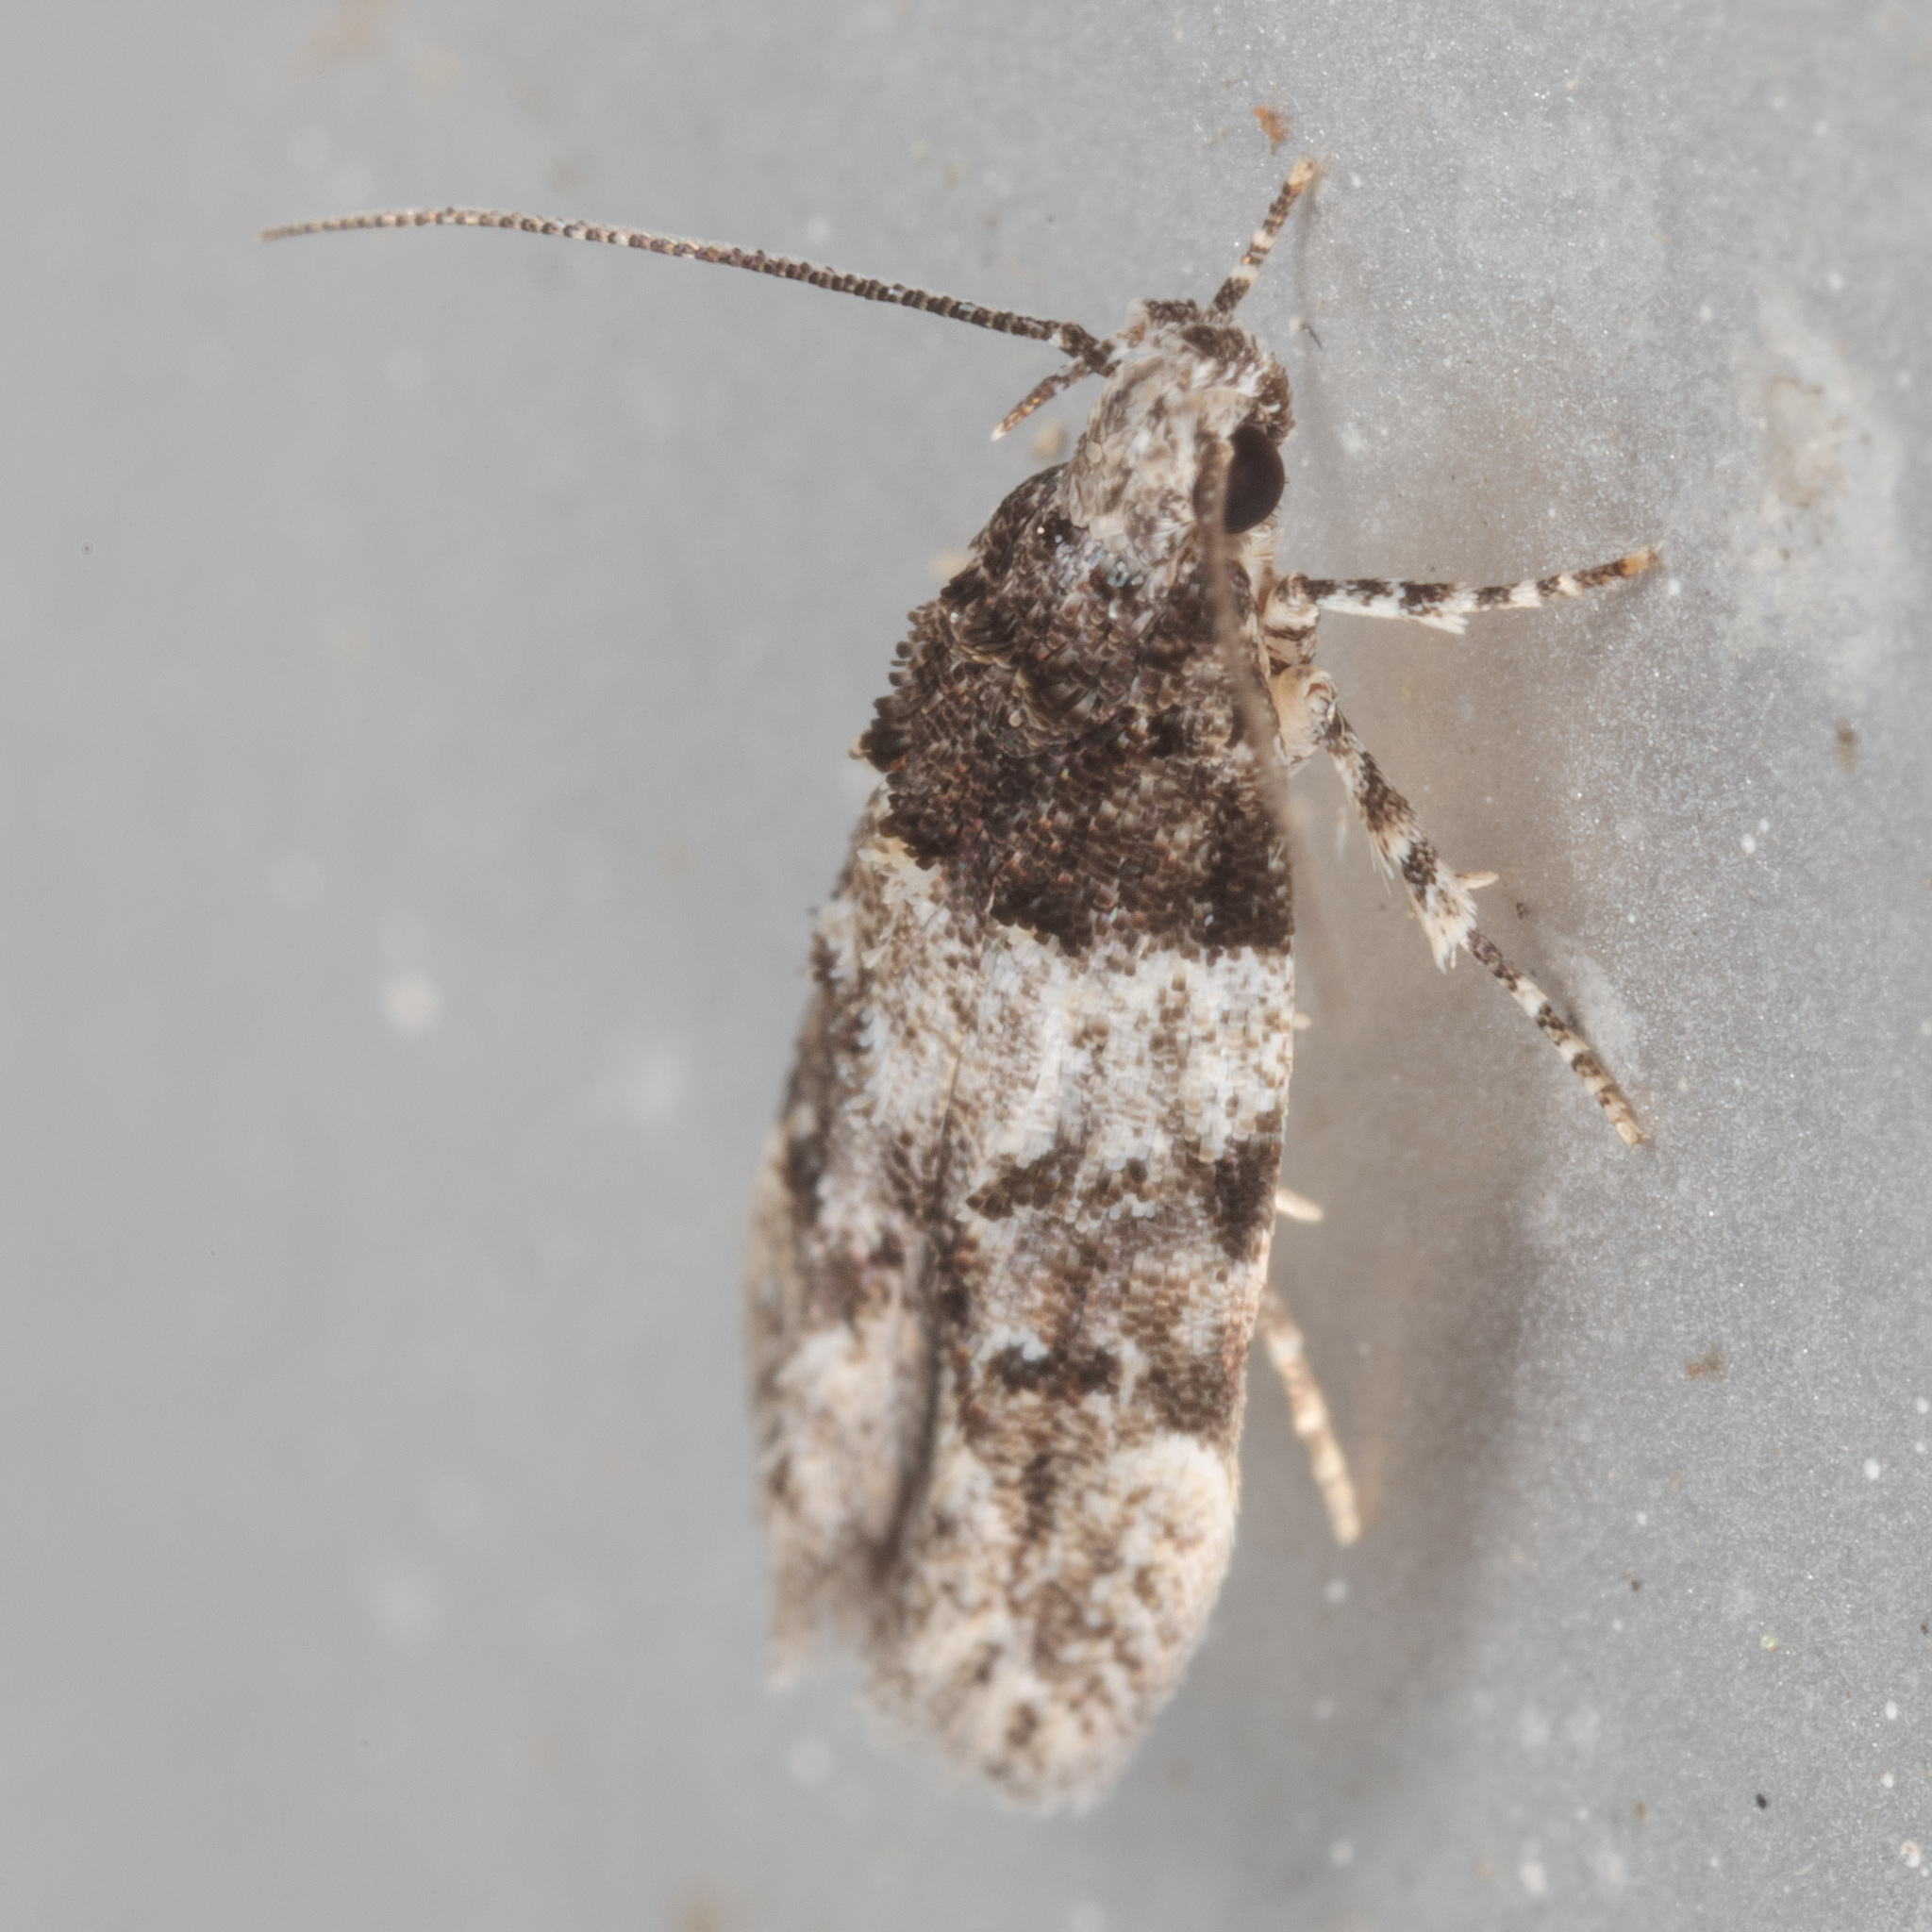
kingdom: Animalia
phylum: Arthropoda
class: Insecta
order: Lepidoptera
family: Gelechiidae
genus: Pubitelphusa
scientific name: Pubitelphusa latifasciella
